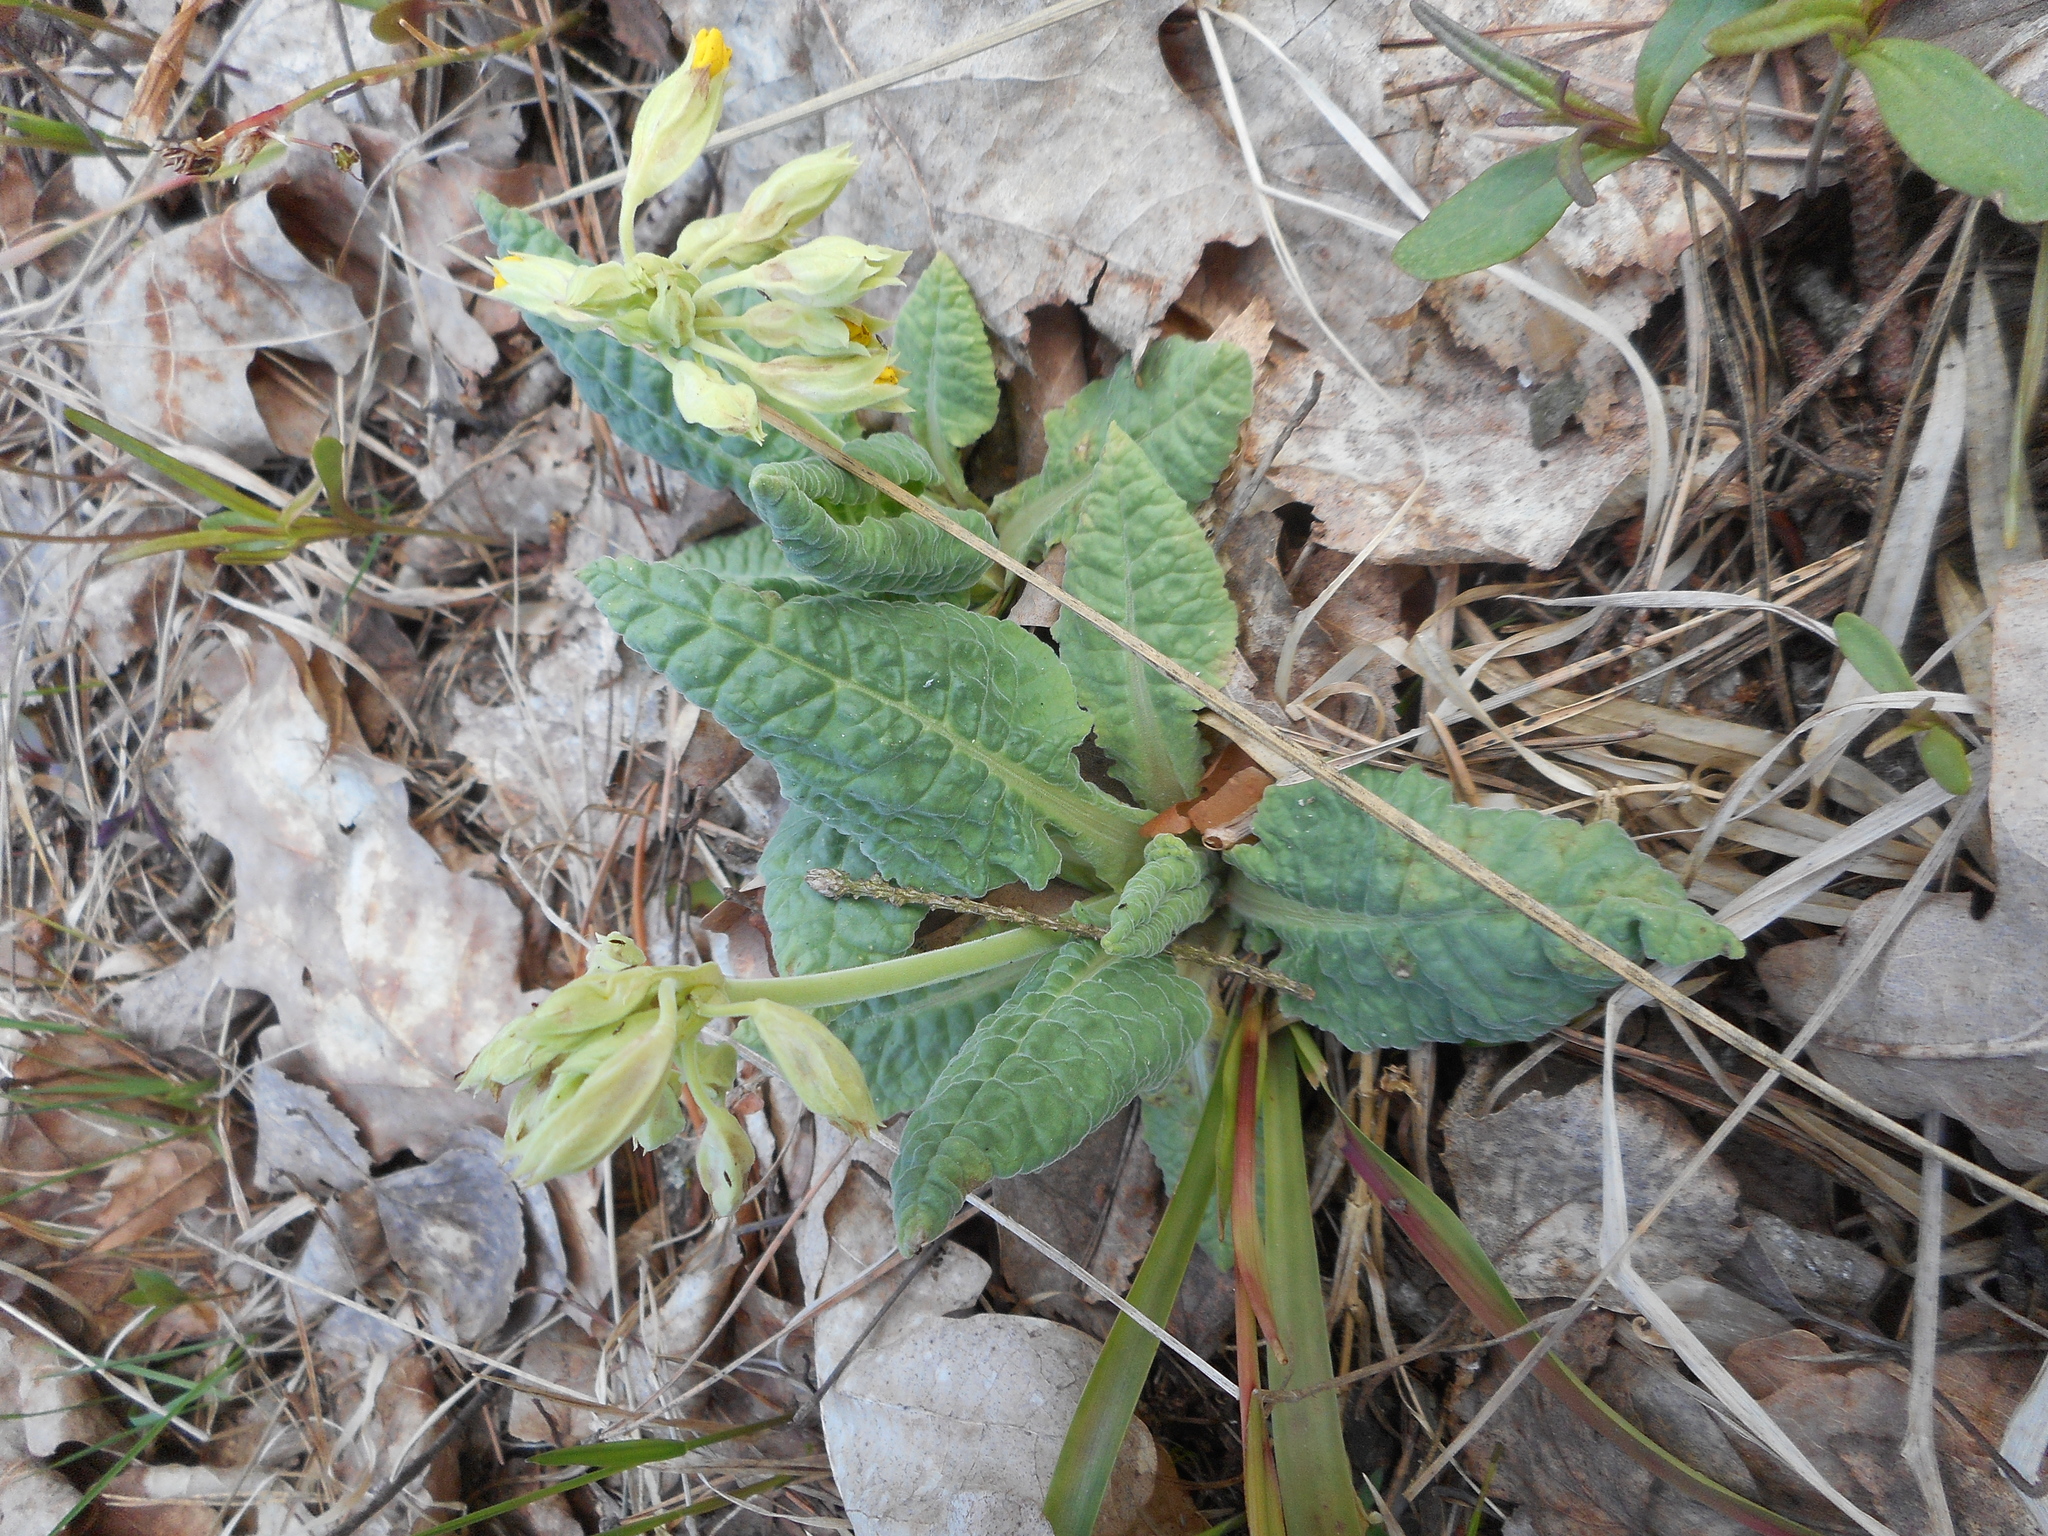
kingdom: Plantae
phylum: Tracheophyta
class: Magnoliopsida
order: Ericales
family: Primulaceae
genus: Primula
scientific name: Primula veris
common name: Cowslip
